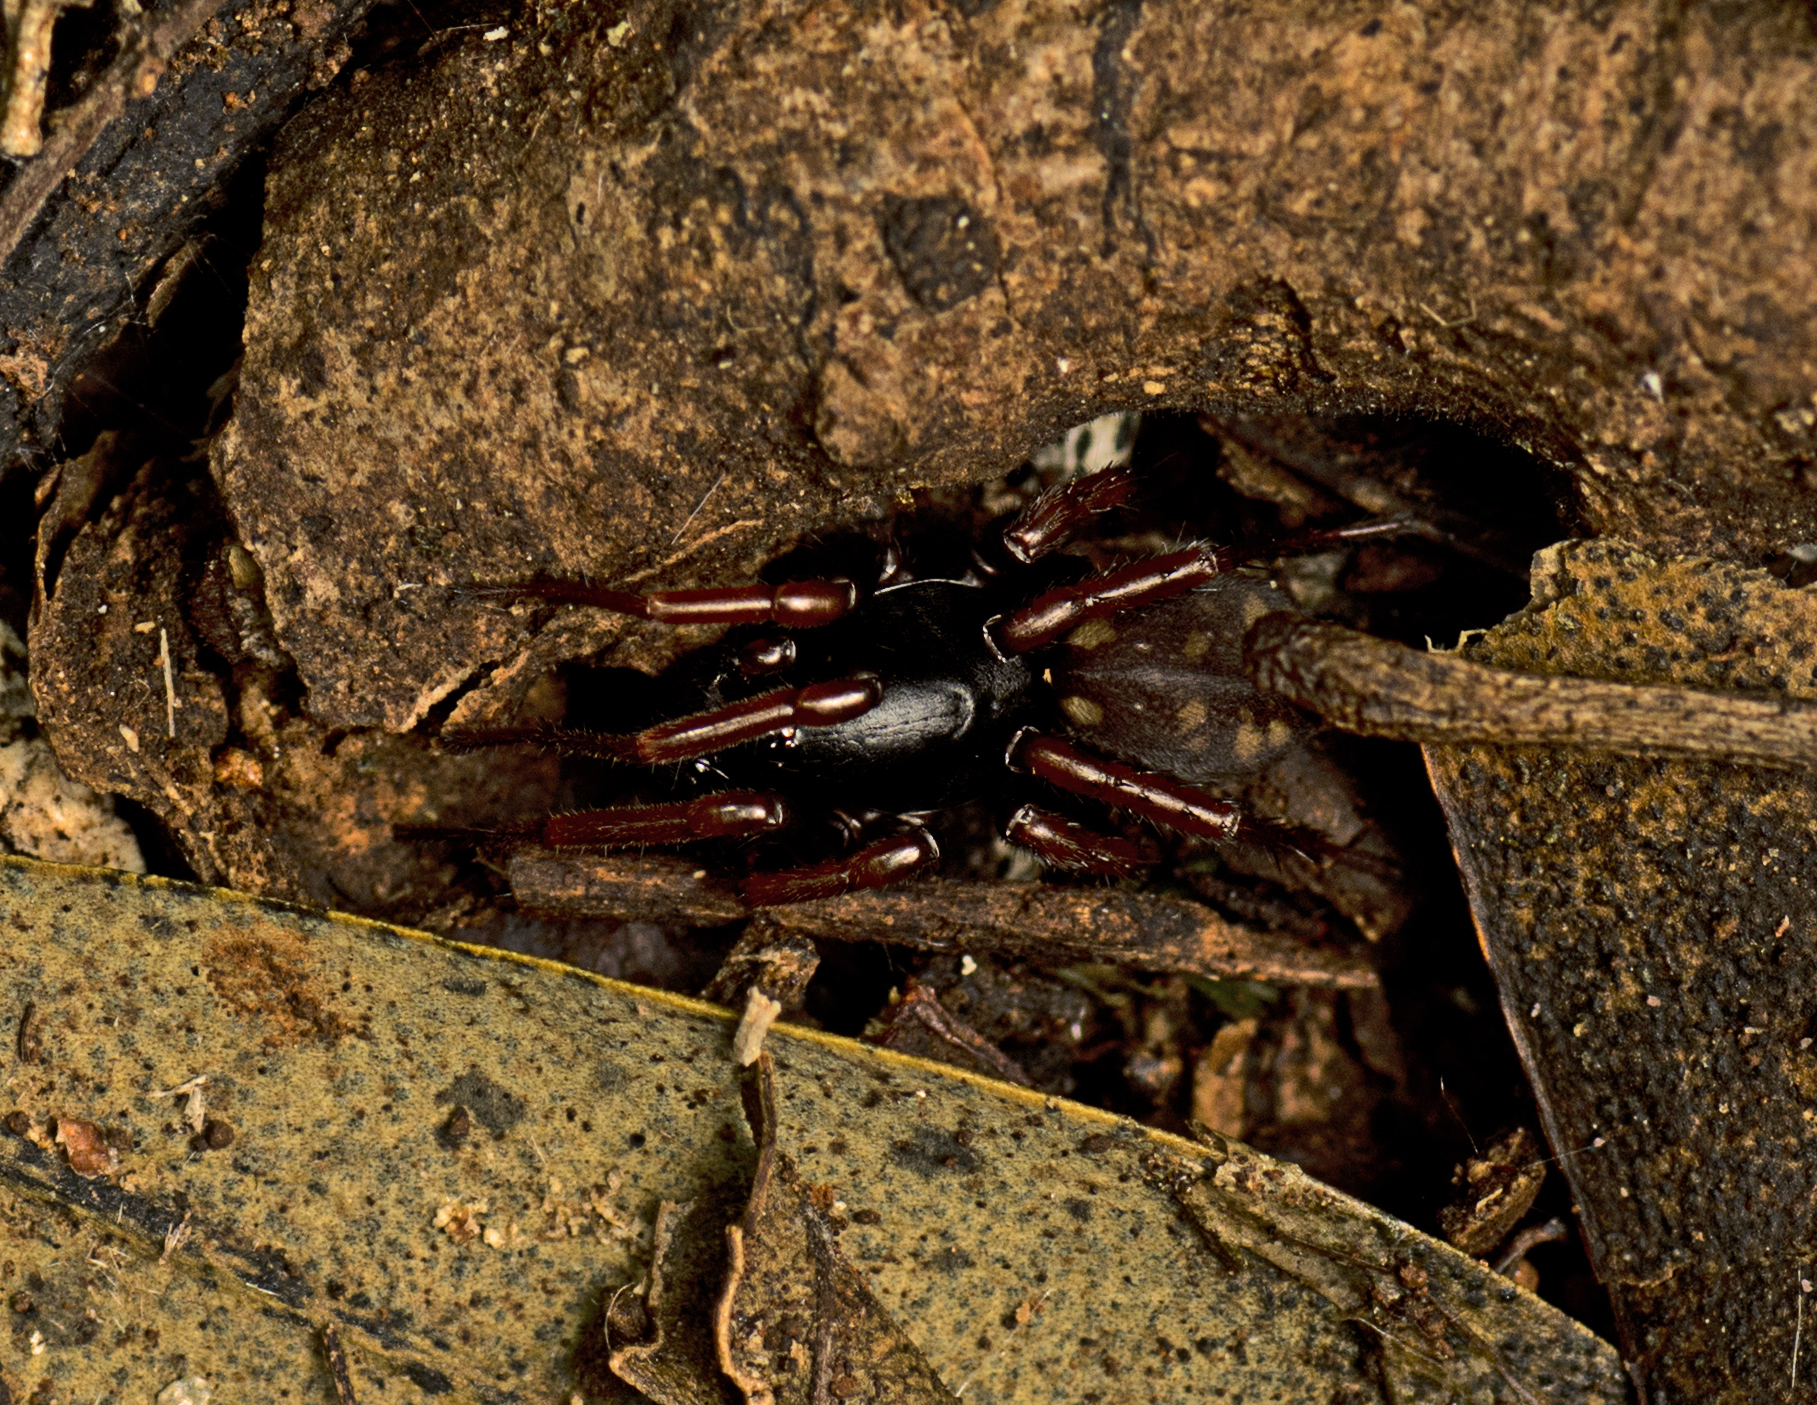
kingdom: Animalia
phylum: Arthropoda
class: Arachnida
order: Araneae
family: Zodariidae
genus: Neostorena
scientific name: Neostorena minor
